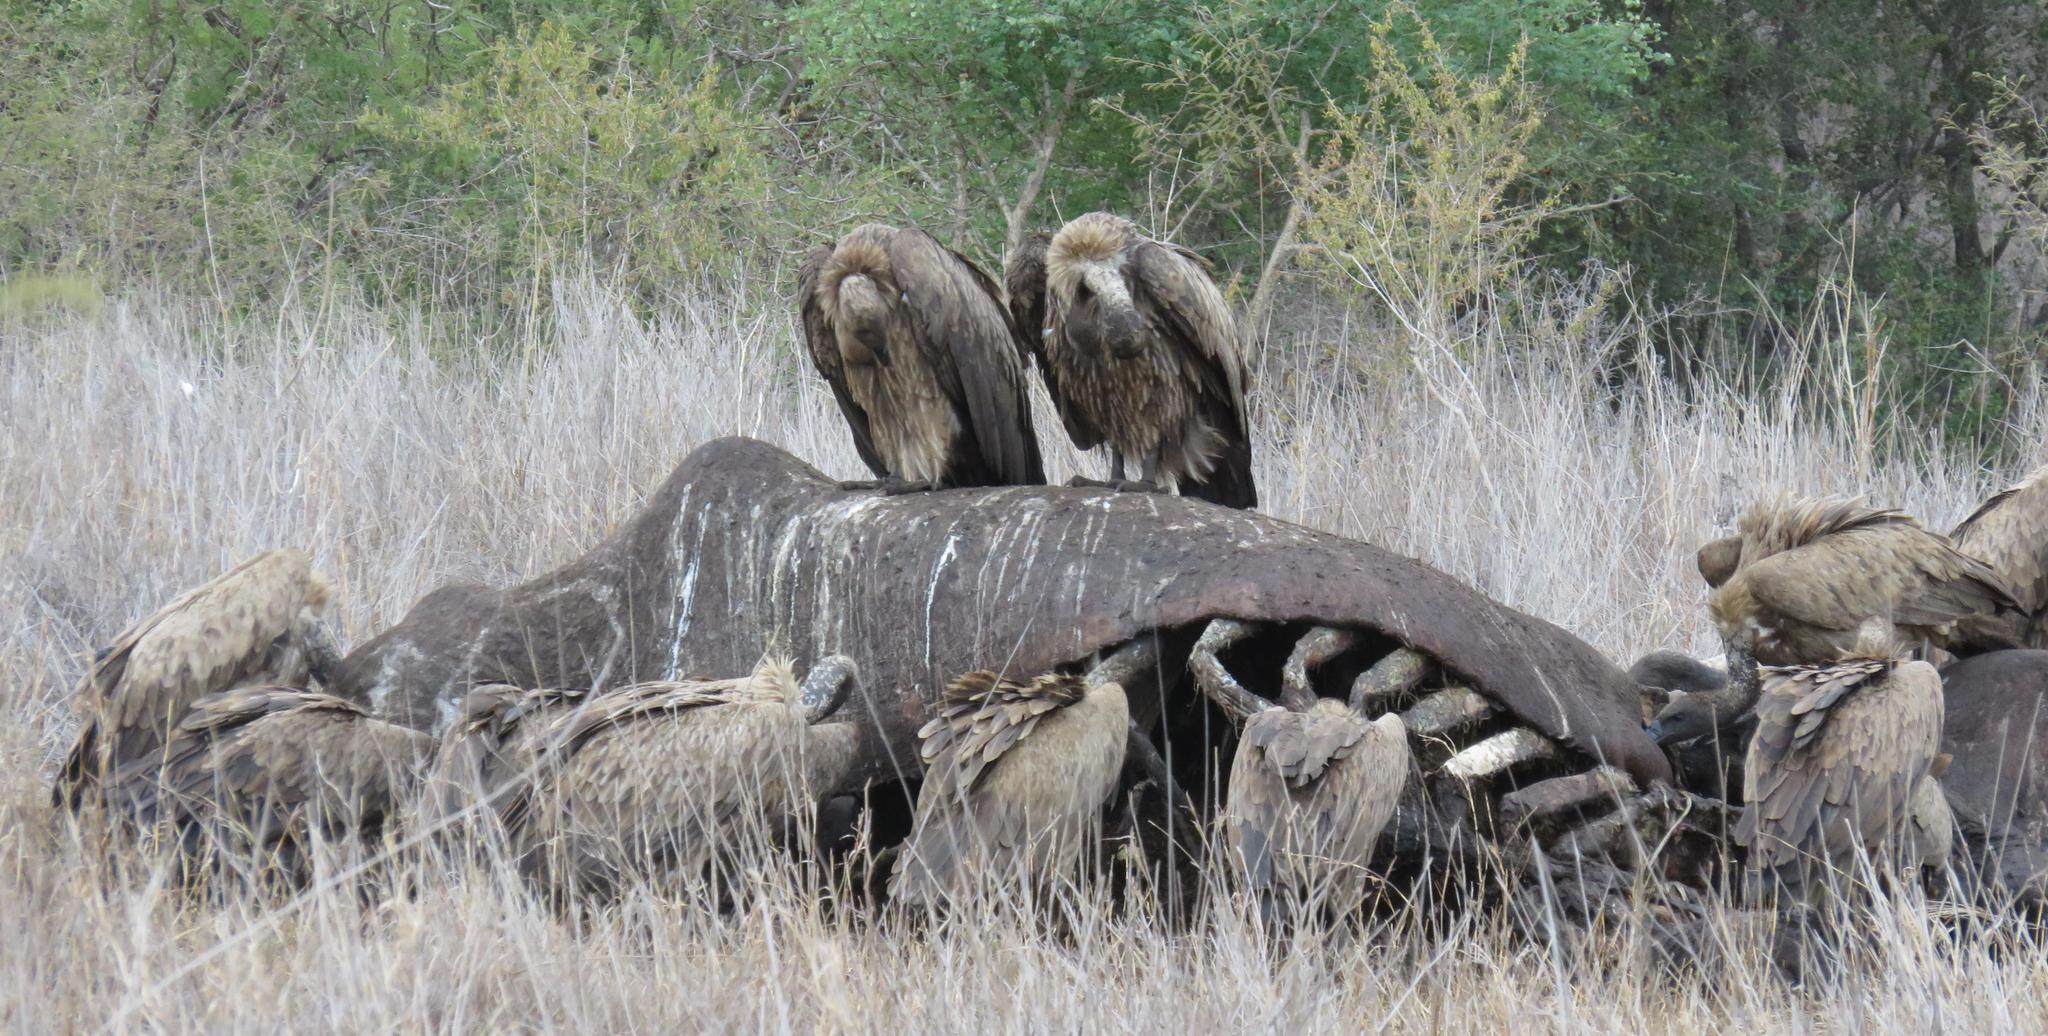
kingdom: Animalia
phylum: Chordata
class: Mammalia
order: Artiodactyla
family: Hippopotamidae
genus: Hippopotamus
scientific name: Hippopotamus amphibius
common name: Common hippopotamus
